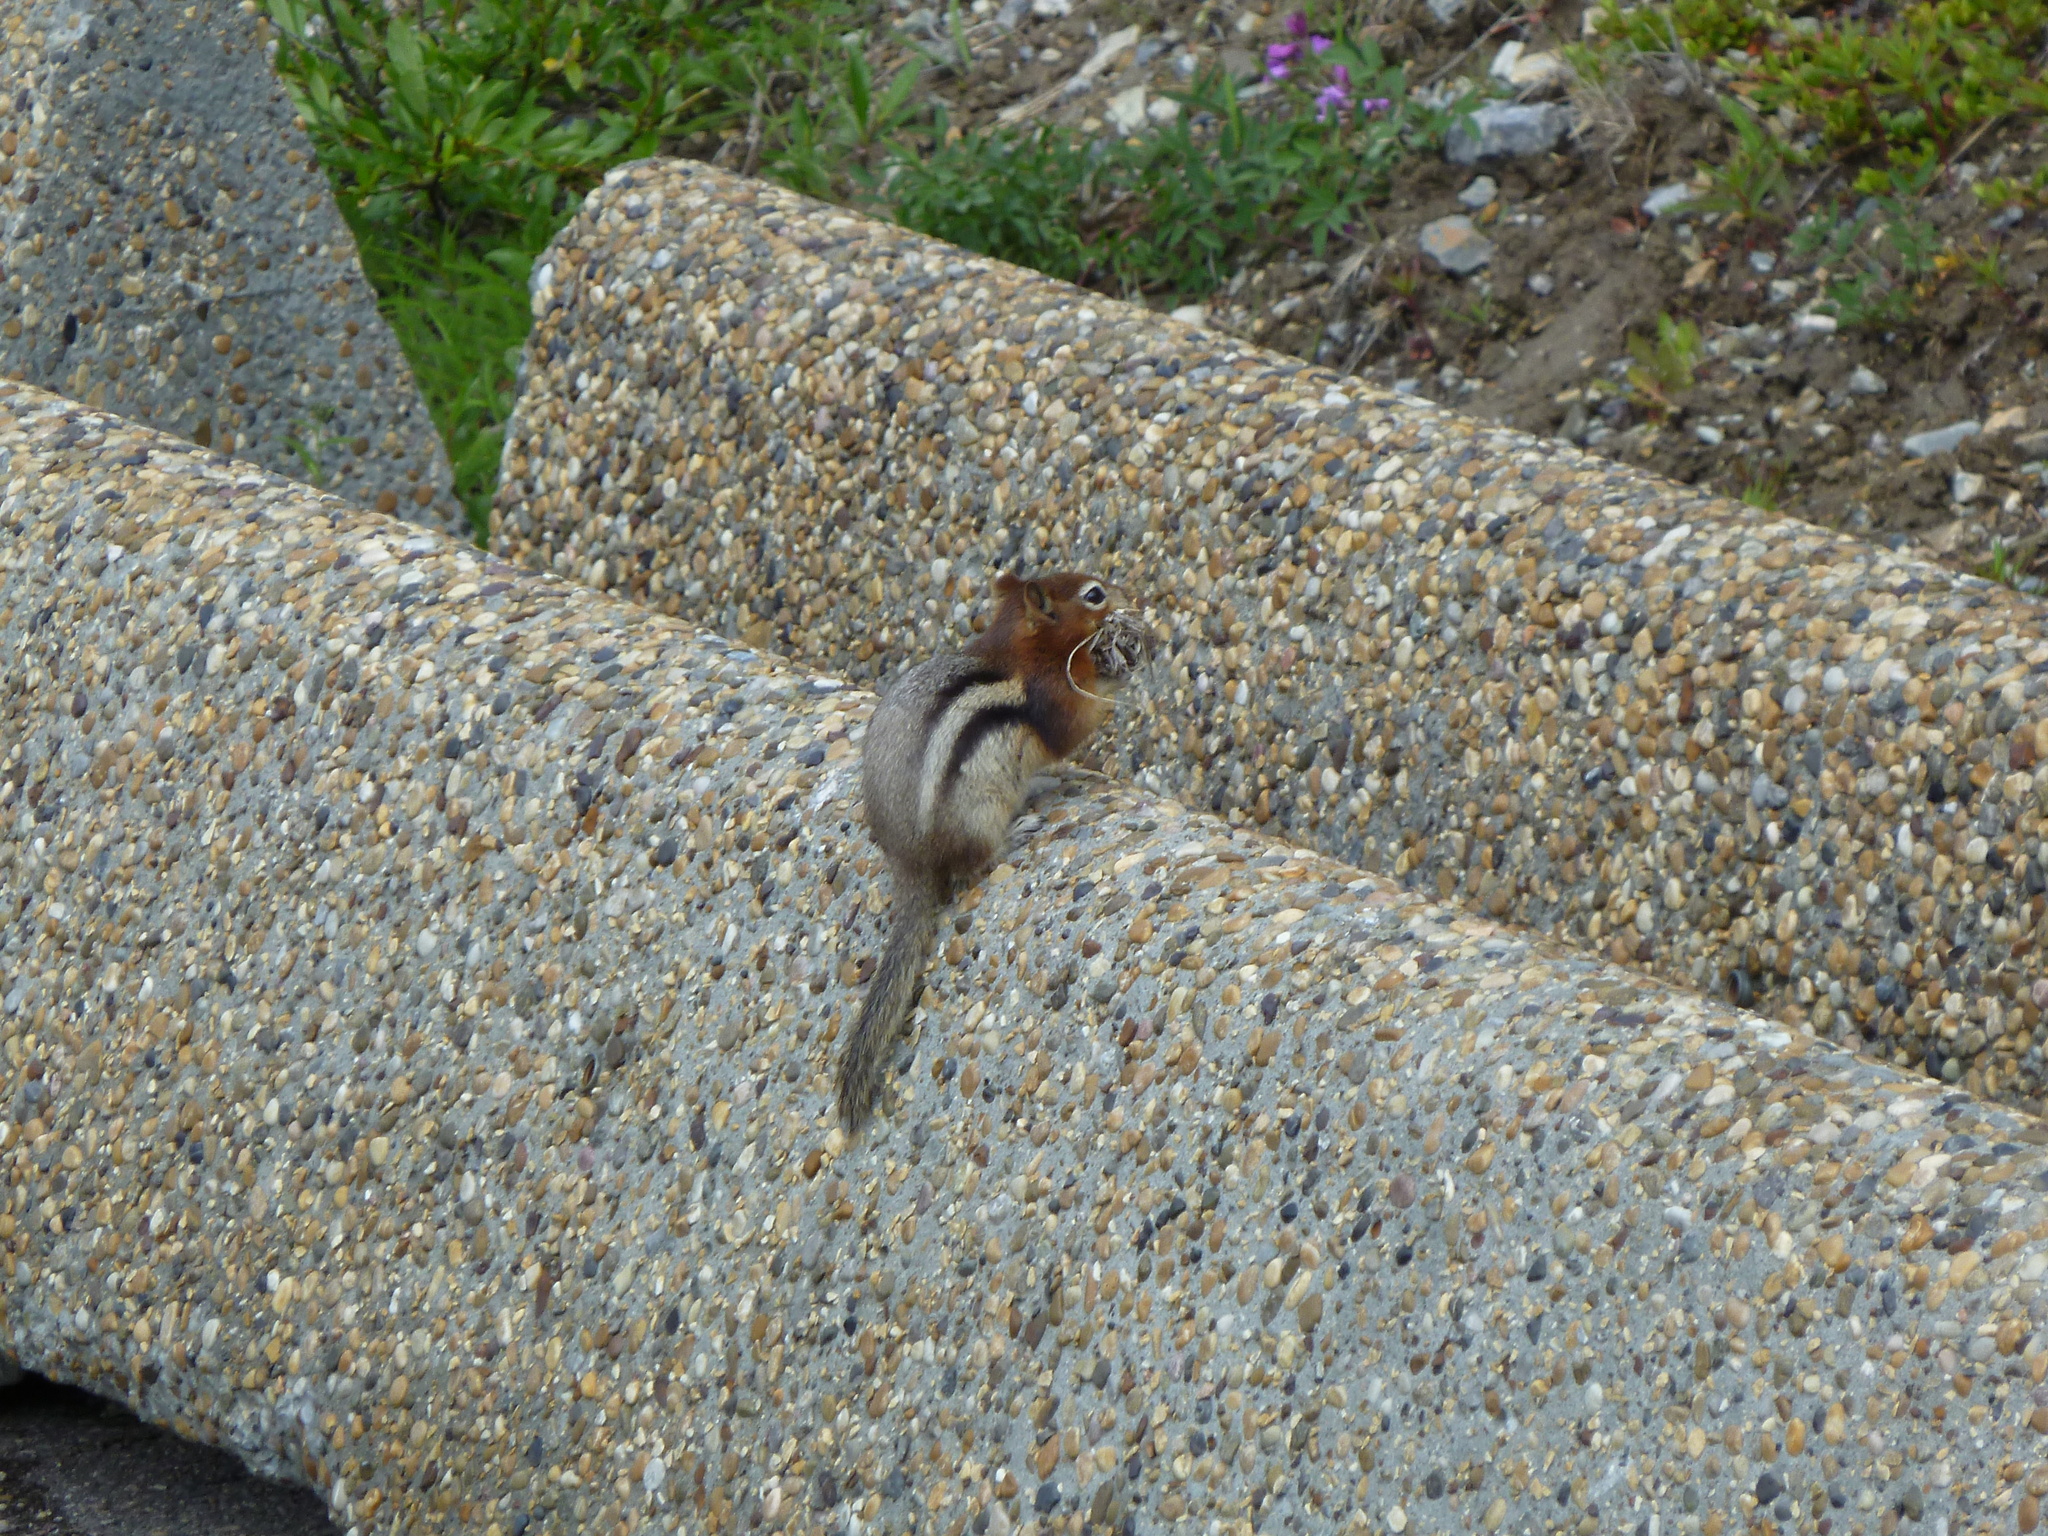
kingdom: Animalia
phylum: Chordata
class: Mammalia
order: Rodentia
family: Sciuridae
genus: Callospermophilus
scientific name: Callospermophilus lateralis
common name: Golden-mantled ground squirrel
